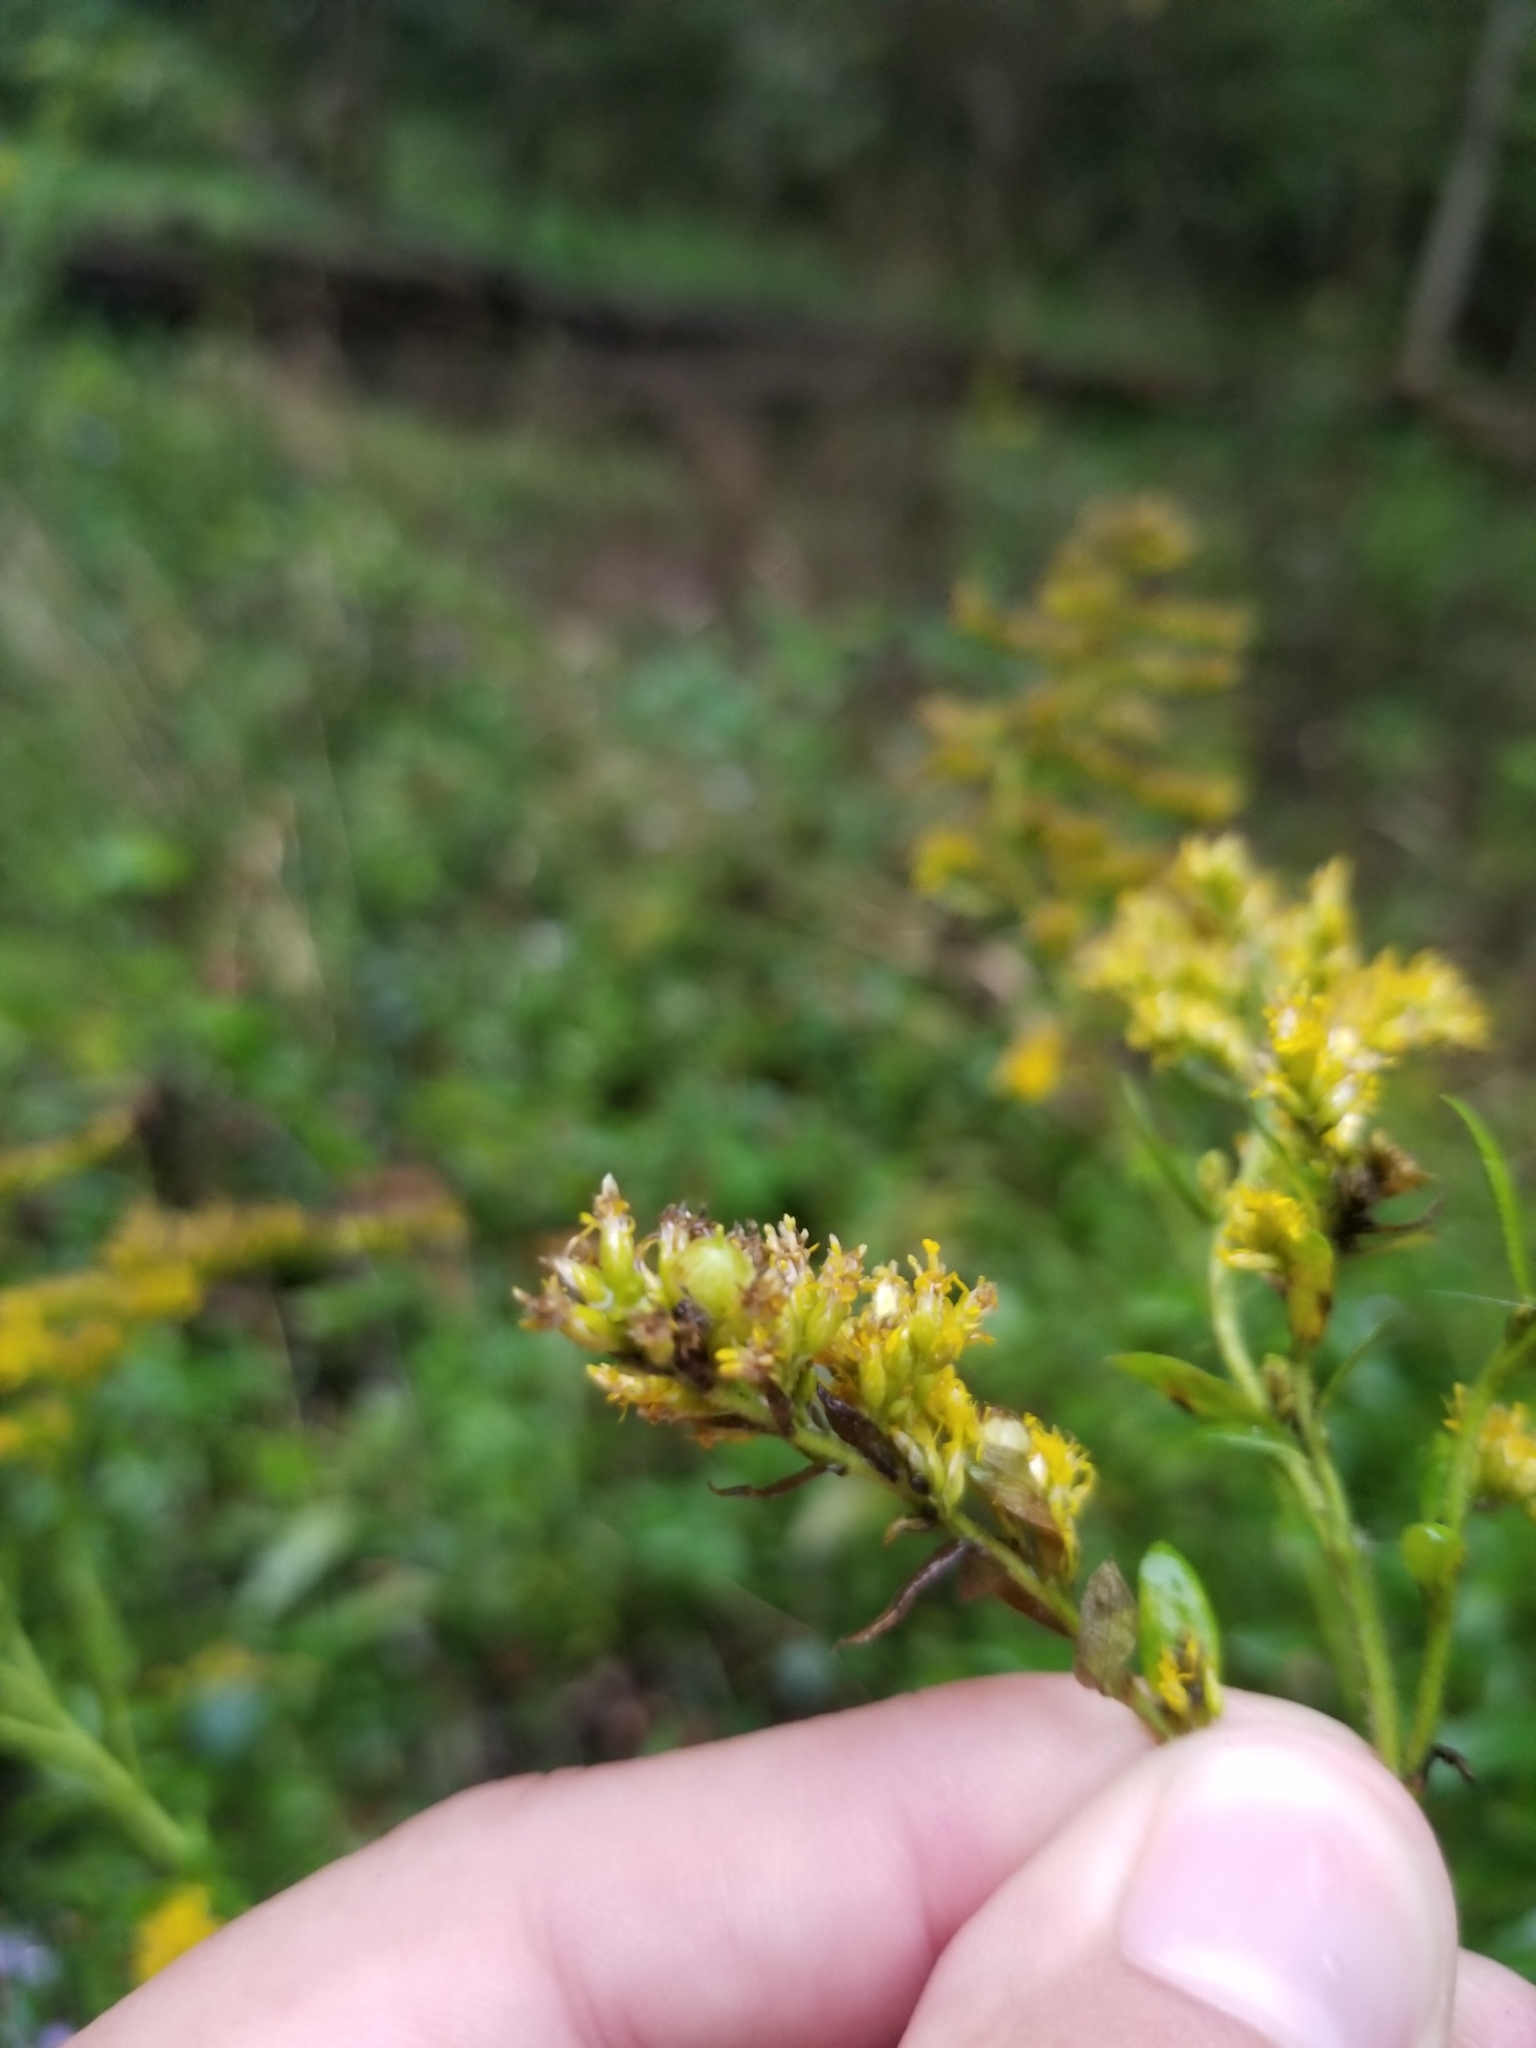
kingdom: Animalia
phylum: Arthropoda
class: Insecta
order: Diptera
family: Cecidomyiidae
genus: Schizomyia
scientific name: Schizomyia racemicola
